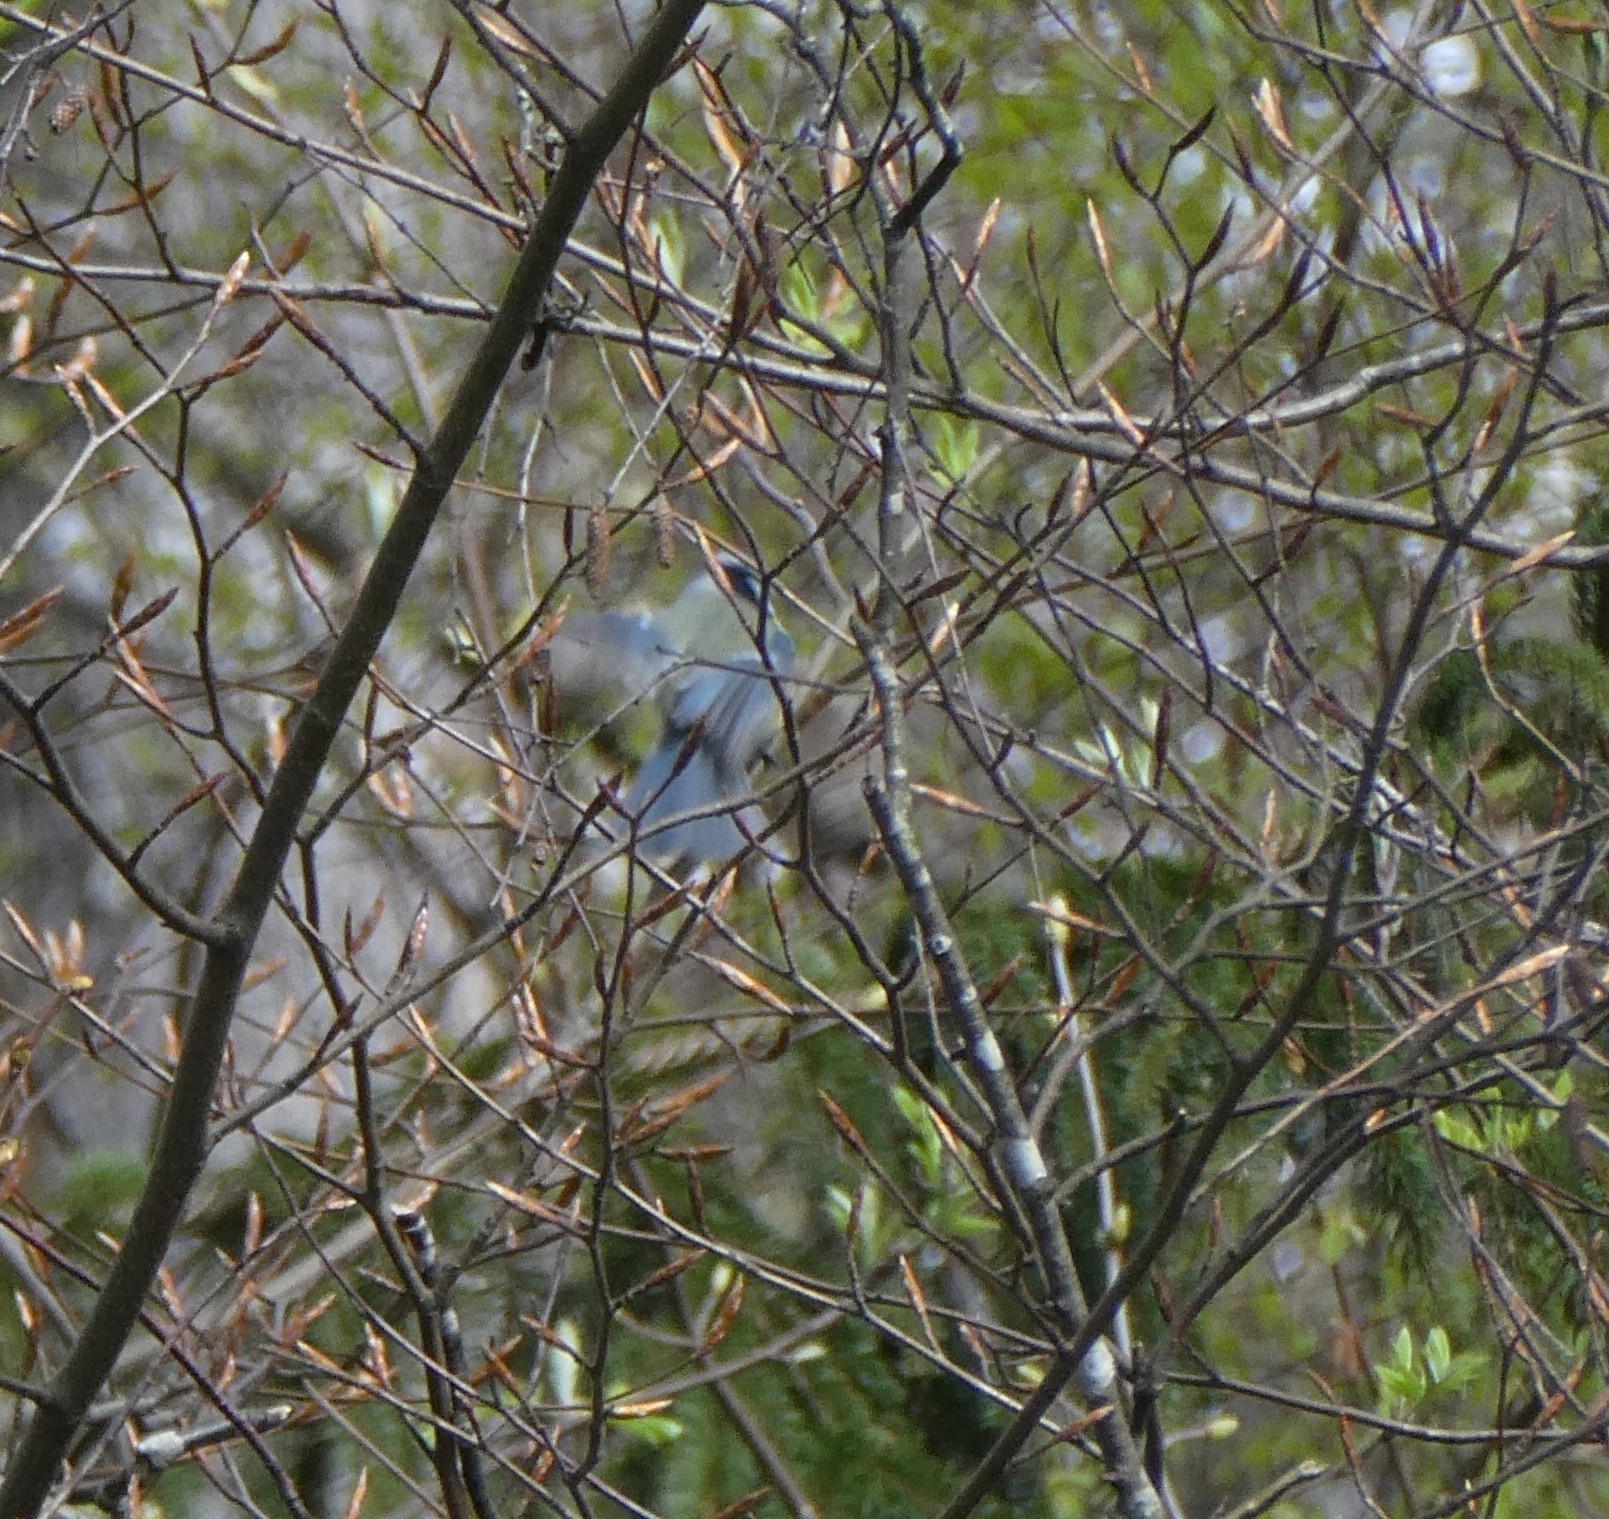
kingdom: Animalia
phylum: Chordata
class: Aves
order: Passeriformes
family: Paridae
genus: Cyanistes
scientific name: Cyanistes caeruleus
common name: Eurasian blue tit
